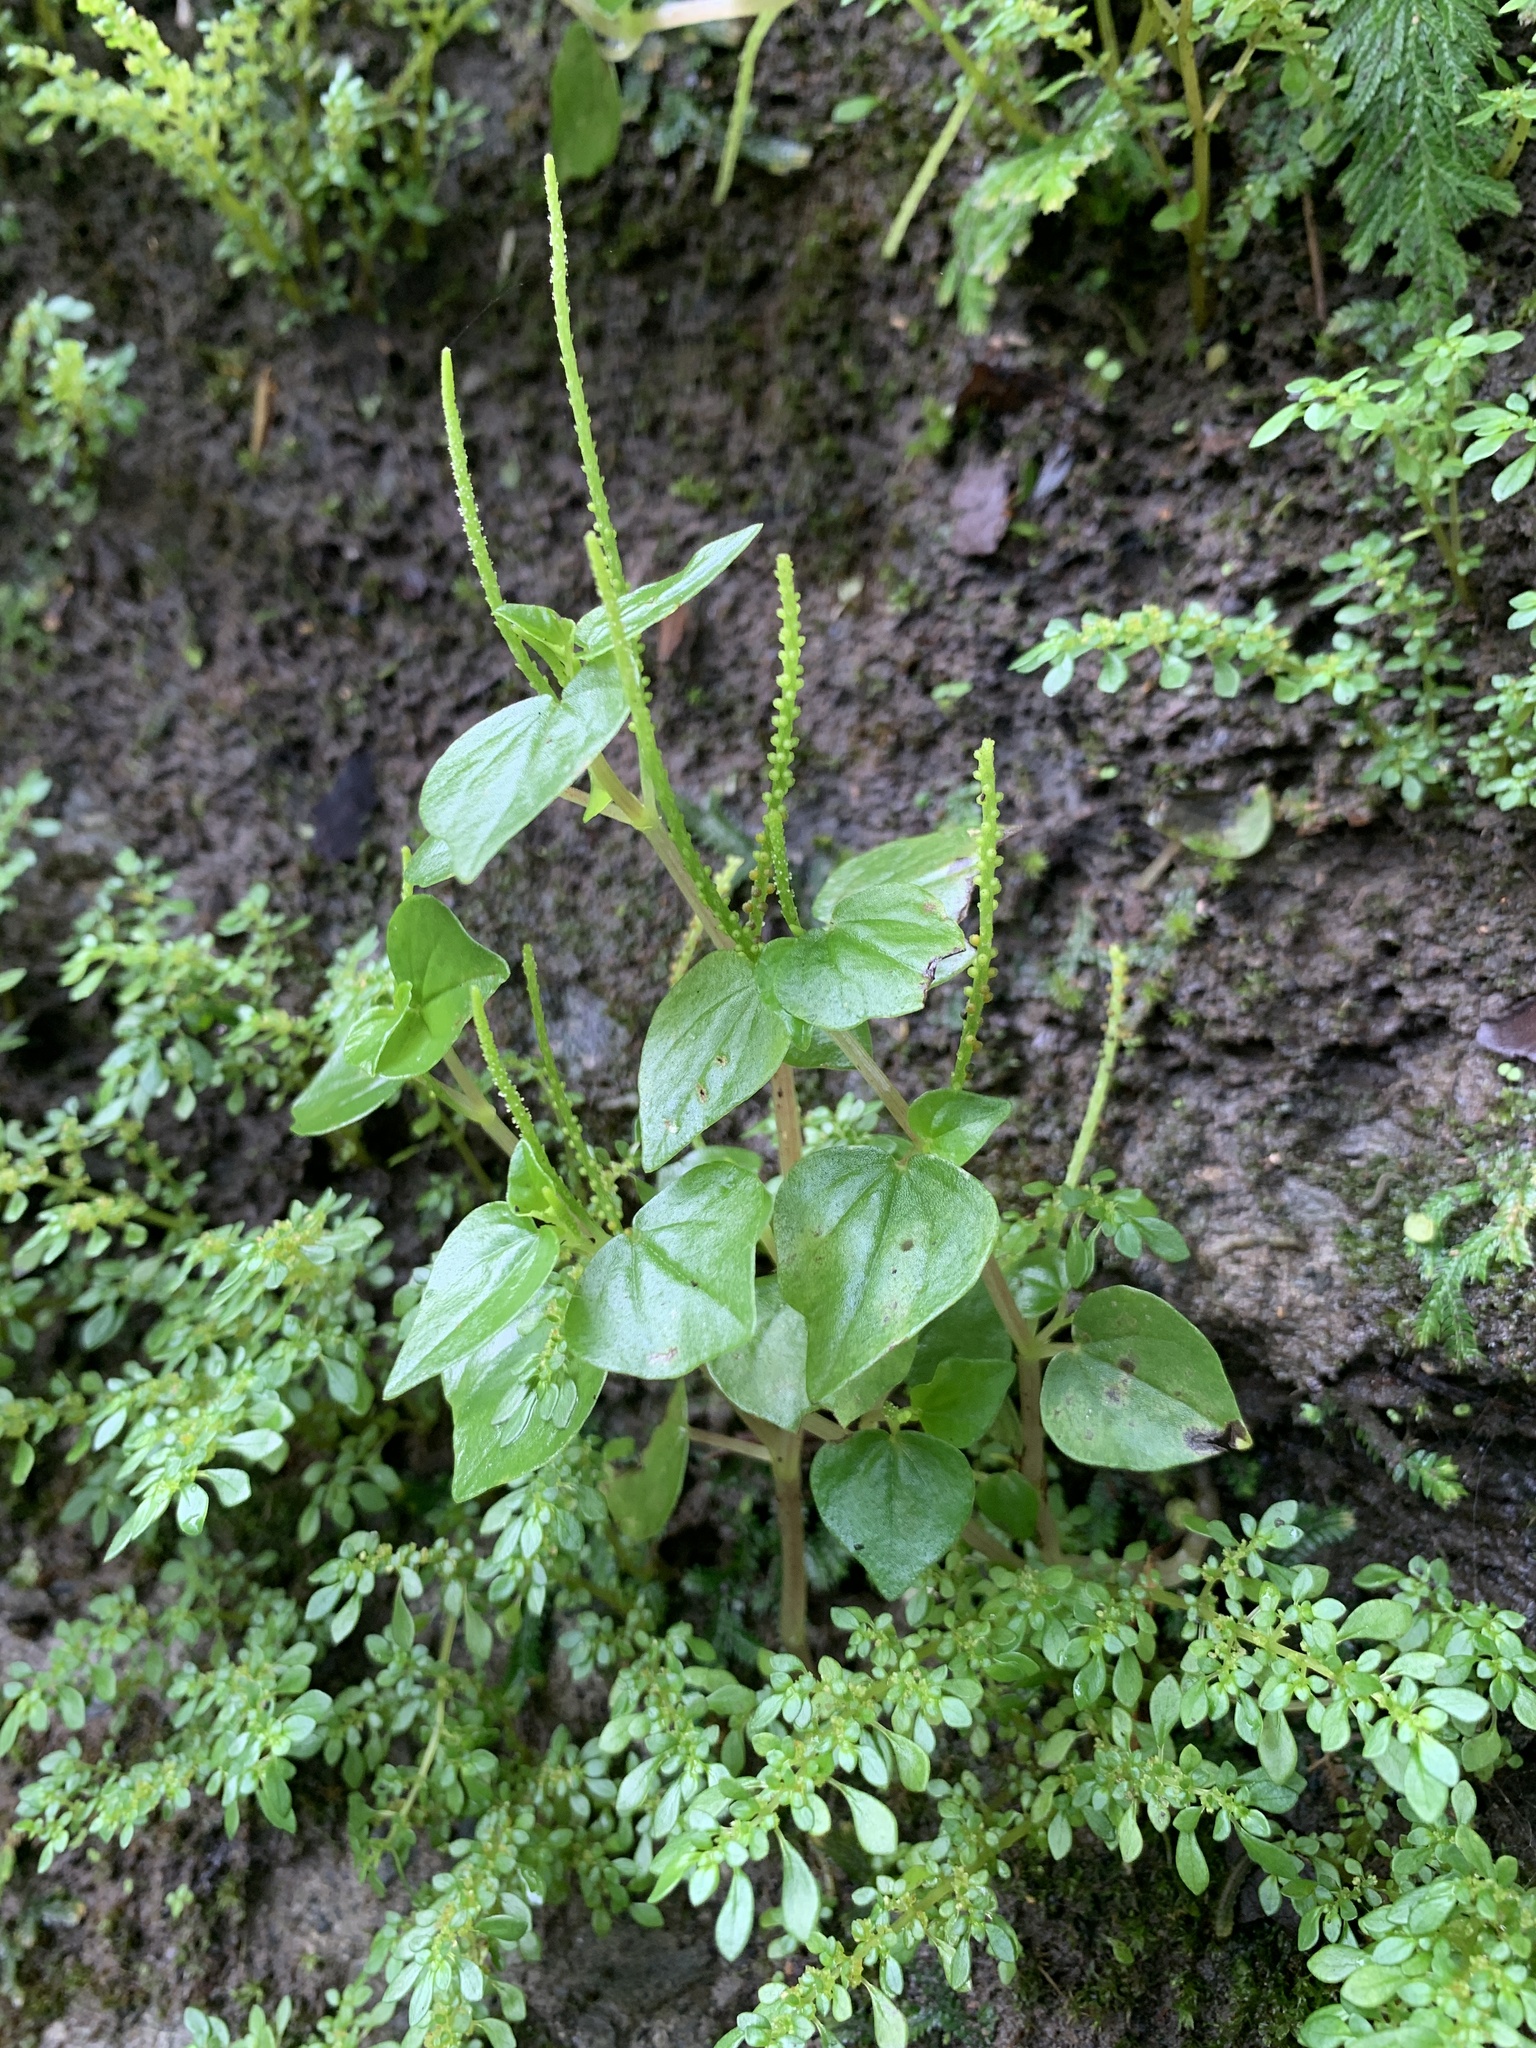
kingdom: Plantae
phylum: Tracheophyta
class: Magnoliopsida
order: Piperales
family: Piperaceae
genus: Peperomia
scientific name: Peperomia pellucida
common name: Man to man
